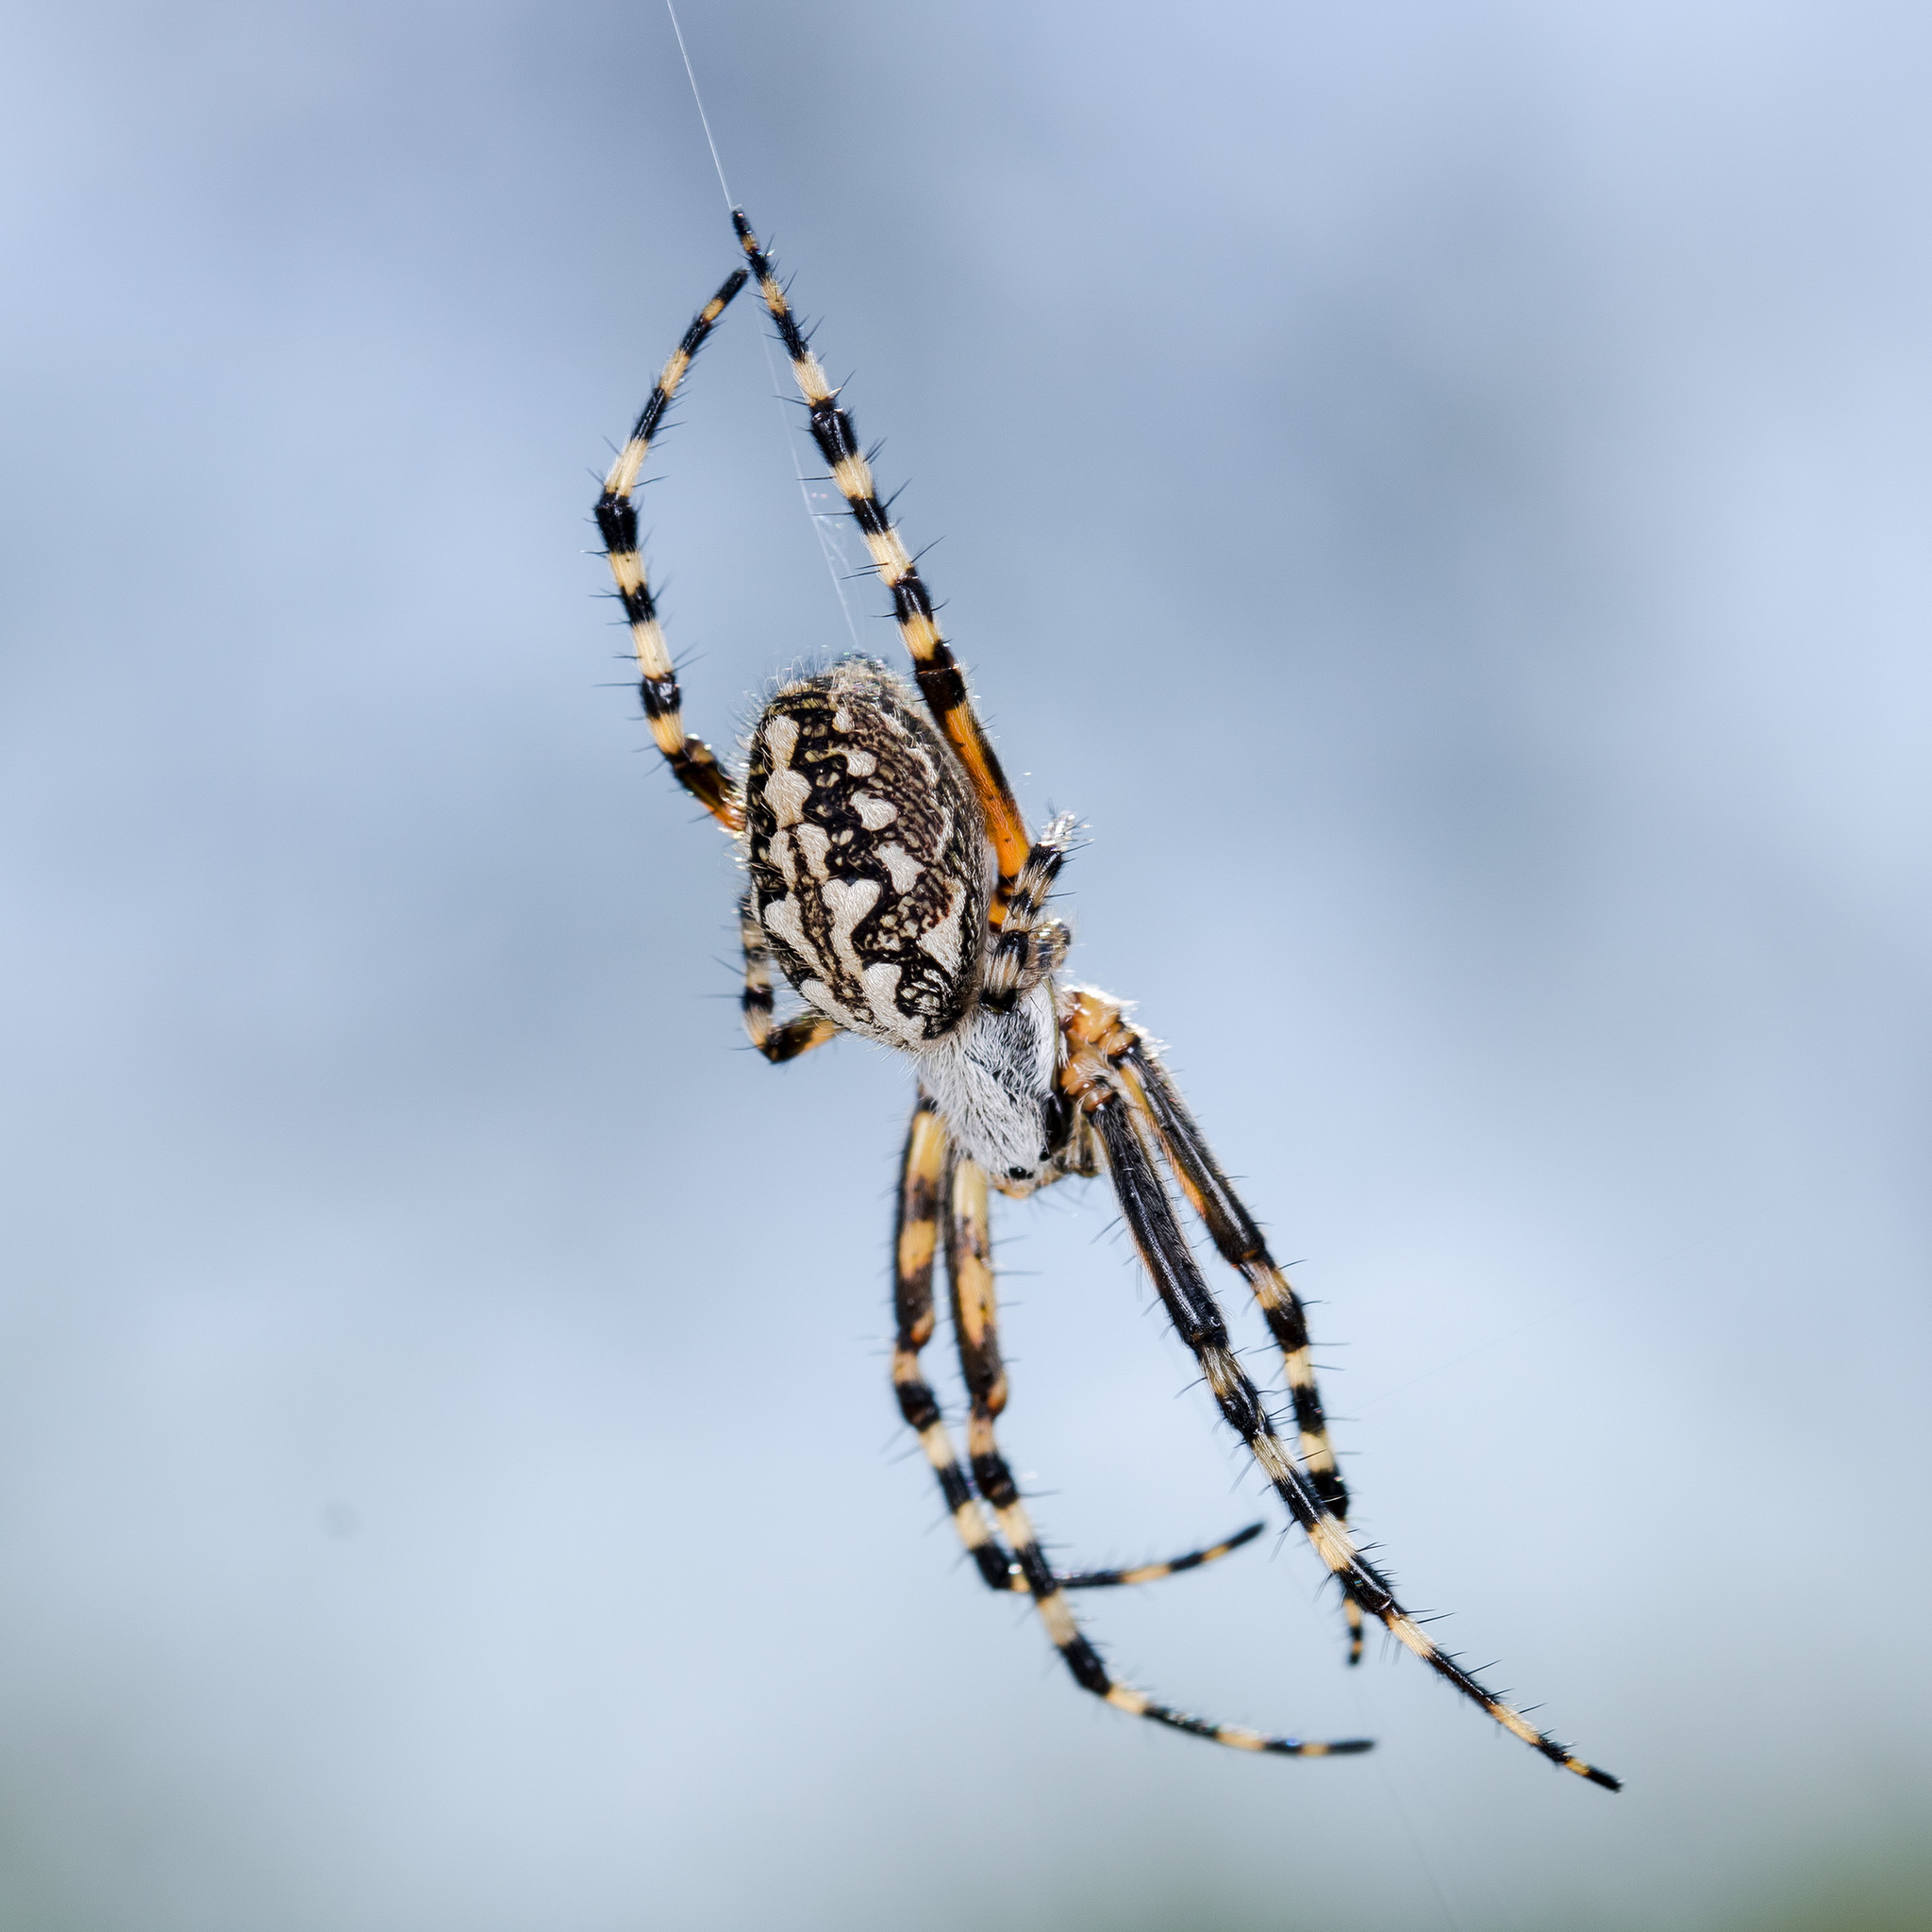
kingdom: Animalia
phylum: Arthropoda
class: Arachnida
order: Araneae
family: Araneidae
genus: Aculepeira
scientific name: Aculepeira armida
